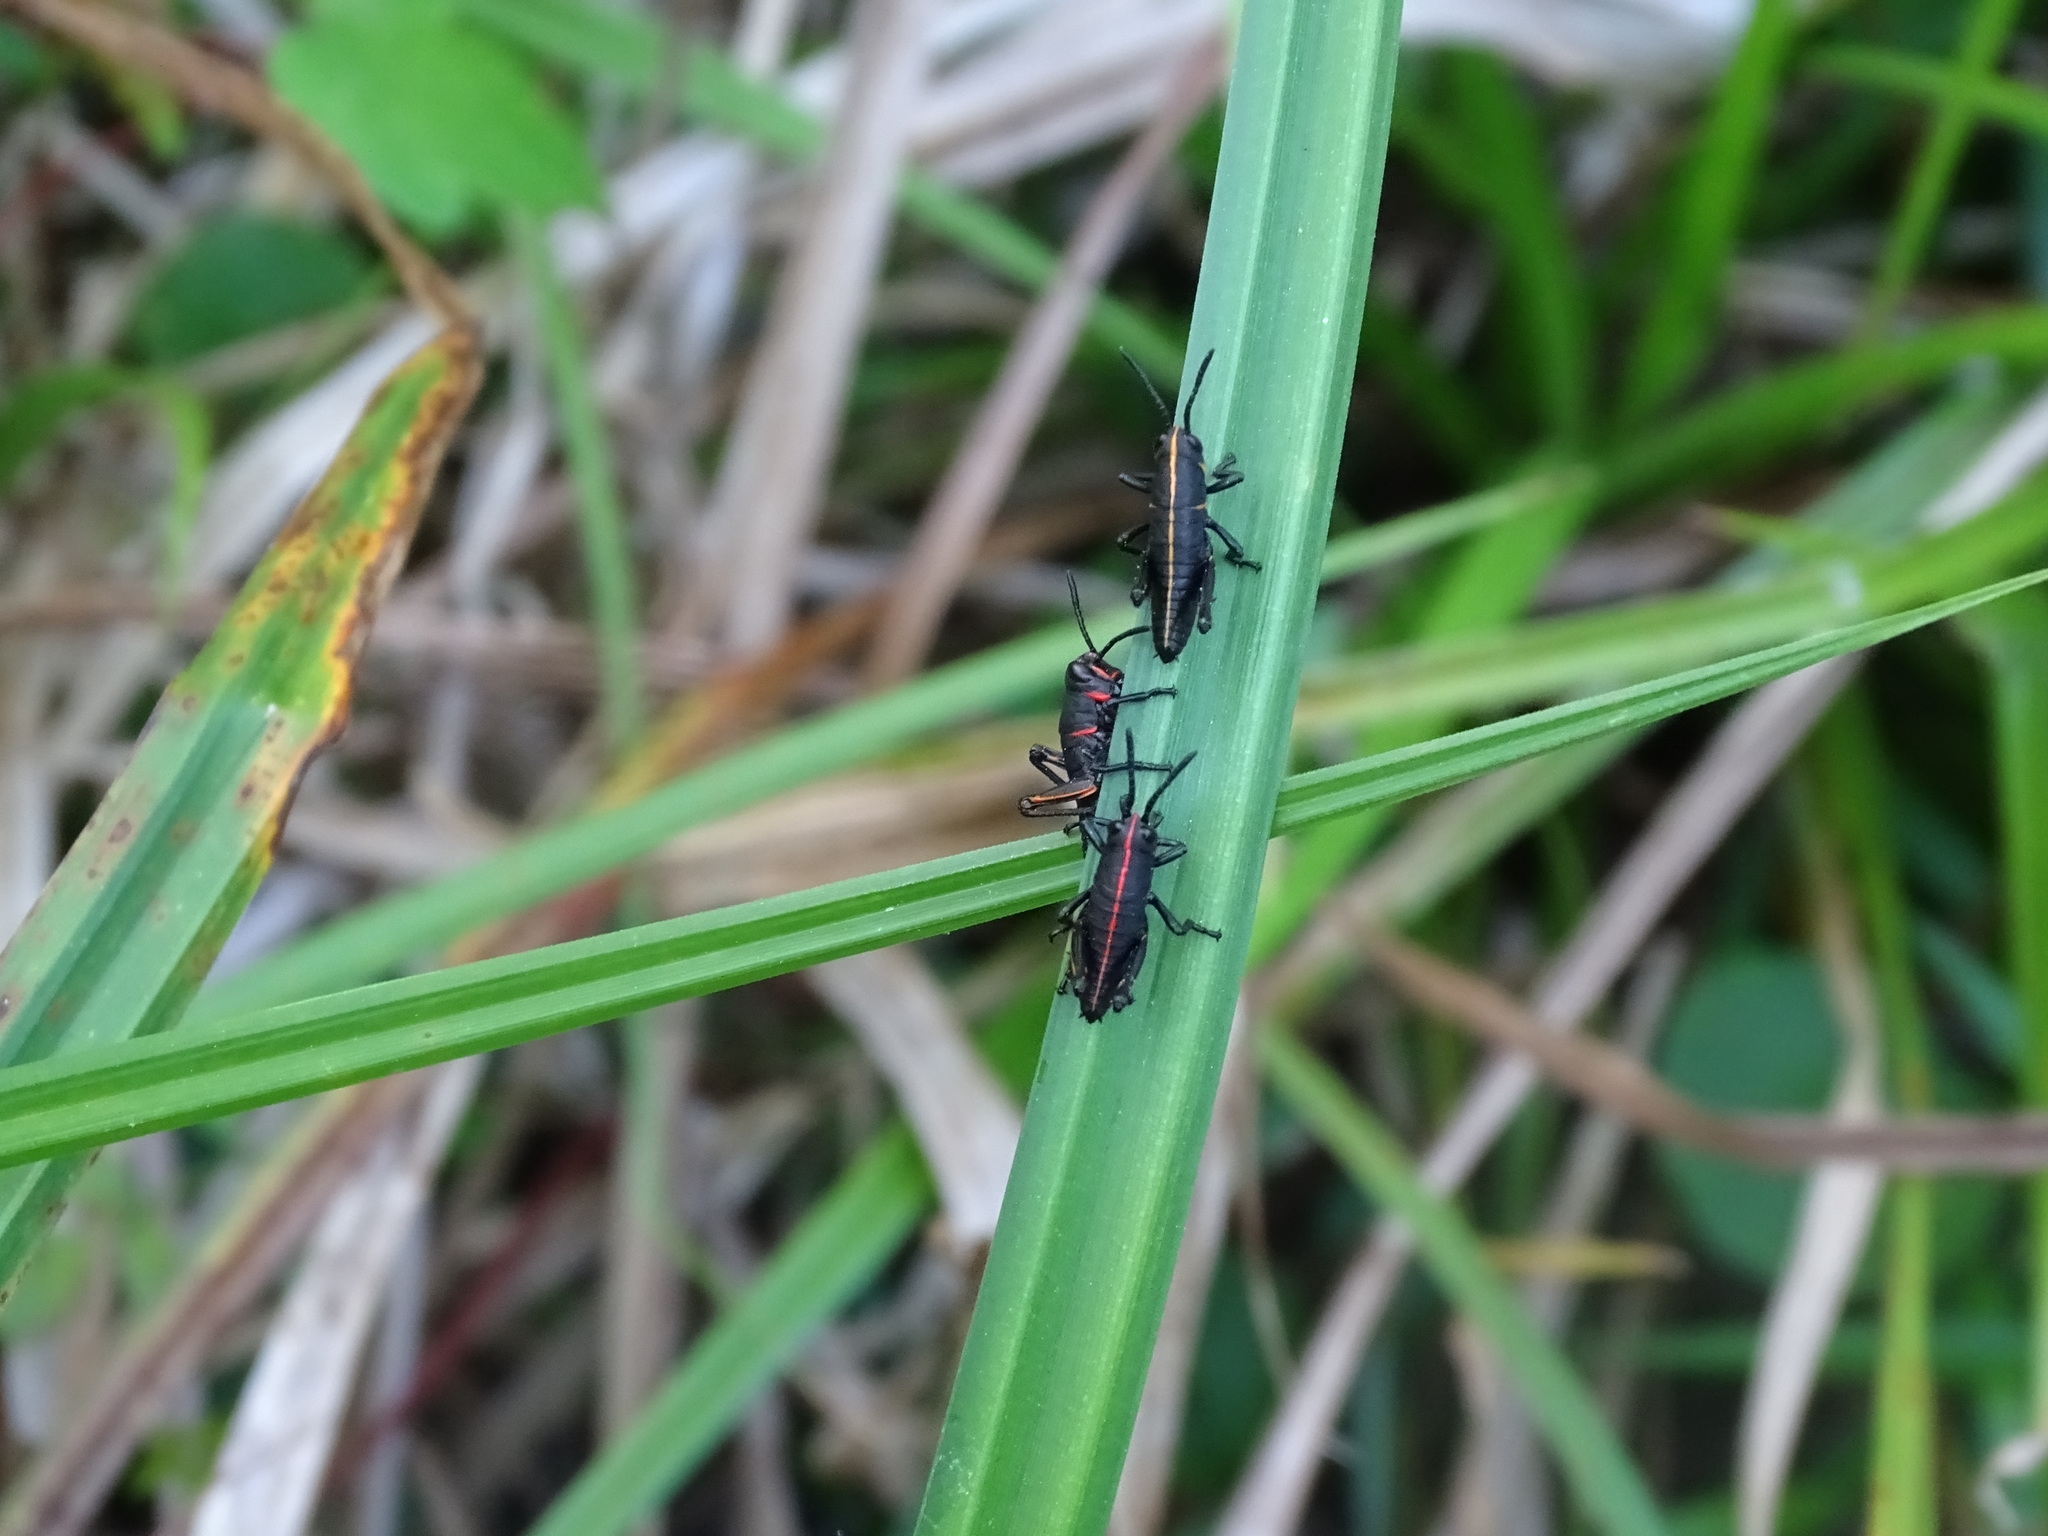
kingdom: Animalia
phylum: Arthropoda
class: Insecta
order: Orthoptera
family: Romaleidae
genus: Romalea
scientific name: Romalea microptera
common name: Eastern lubber grasshopper
